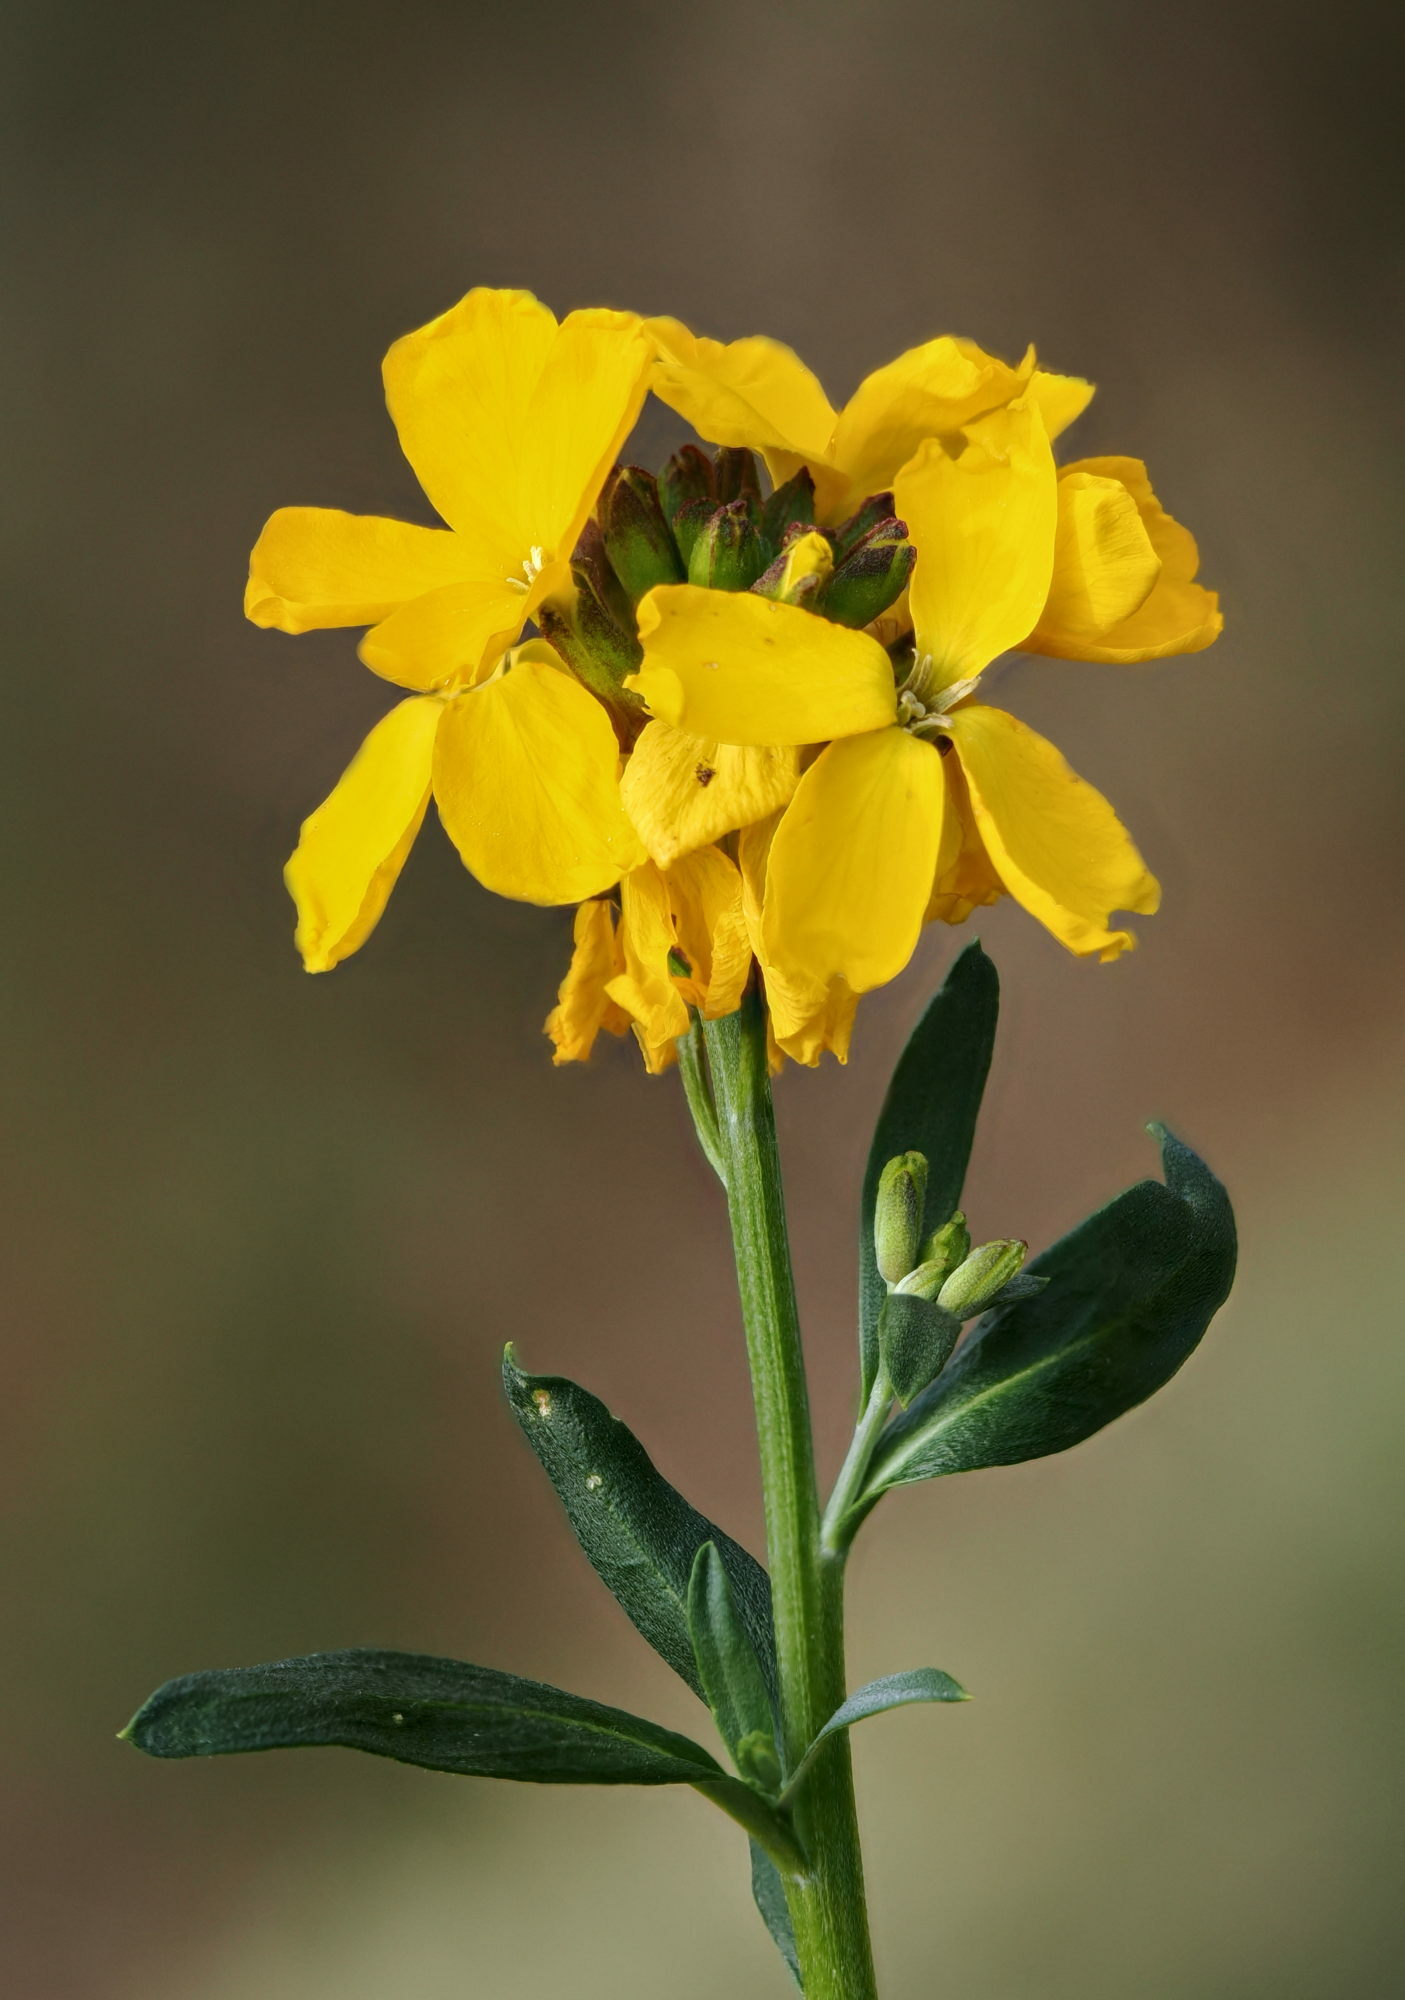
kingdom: Plantae
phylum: Tracheophyta
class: Magnoliopsida
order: Brassicales
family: Brassicaceae
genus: Erysimum
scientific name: Erysimum cheiri
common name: Wallflower
